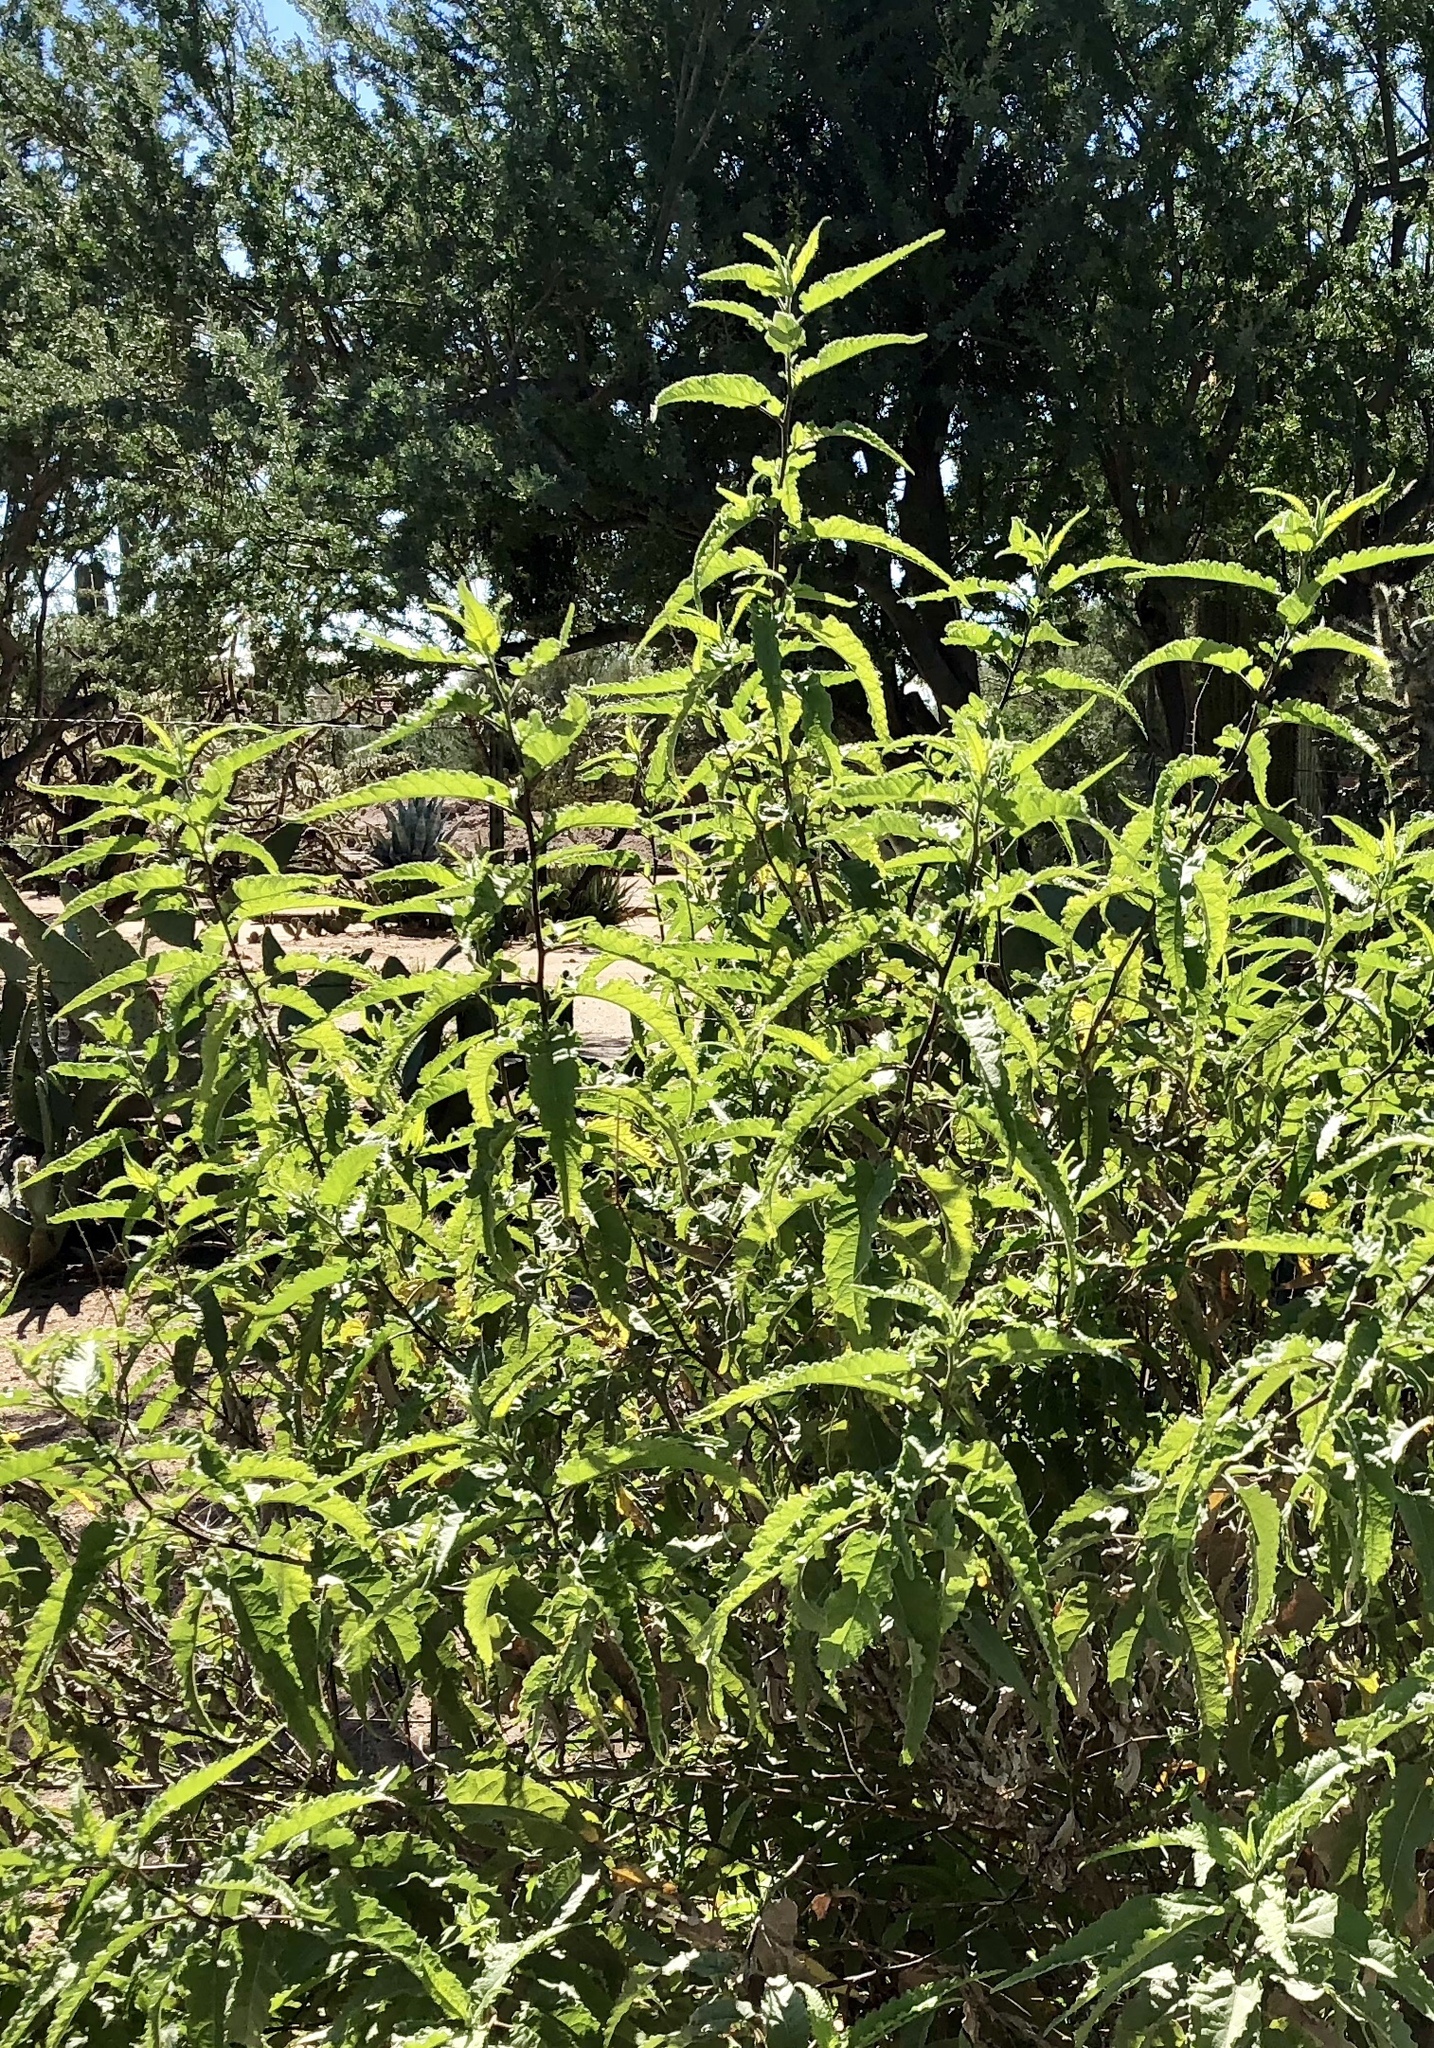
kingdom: Plantae
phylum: Tracheophyta
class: Magnoliopsida
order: Asterales
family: Asteraceae
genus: Ambrosia
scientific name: Ambrosia ambrosioides
